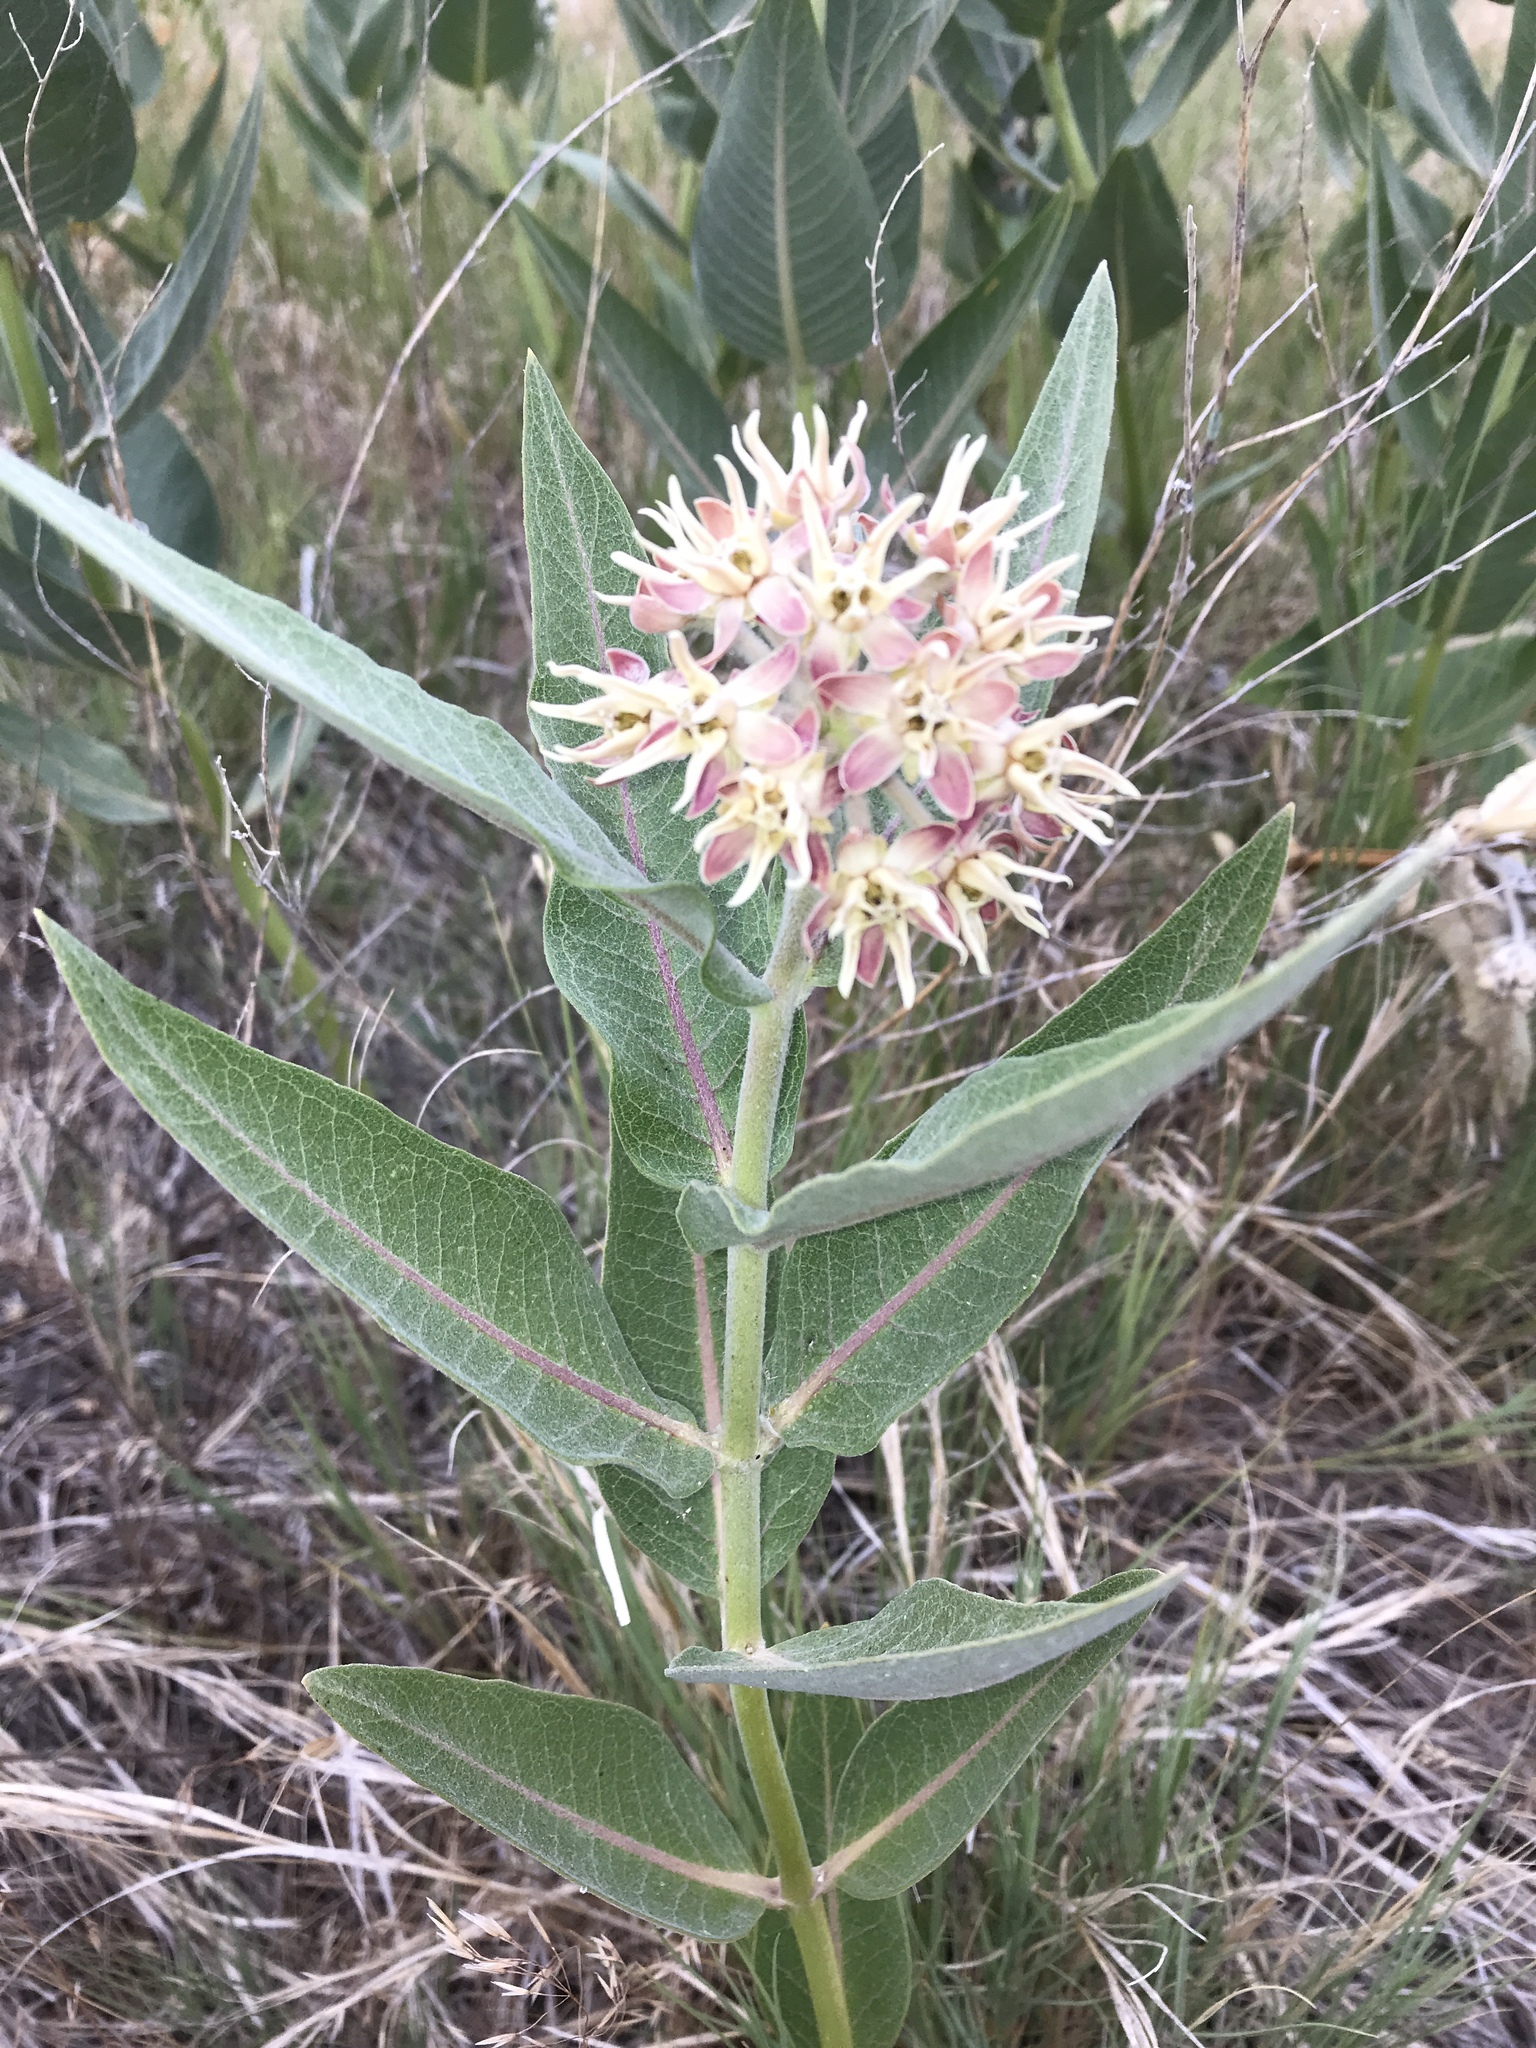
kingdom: Plantae
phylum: Tracheophyta
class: Magnoliopsida
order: Gentianales
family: Apocynaceae
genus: Asclepias
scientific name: Asclepias speciosa
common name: Showy milkweed
